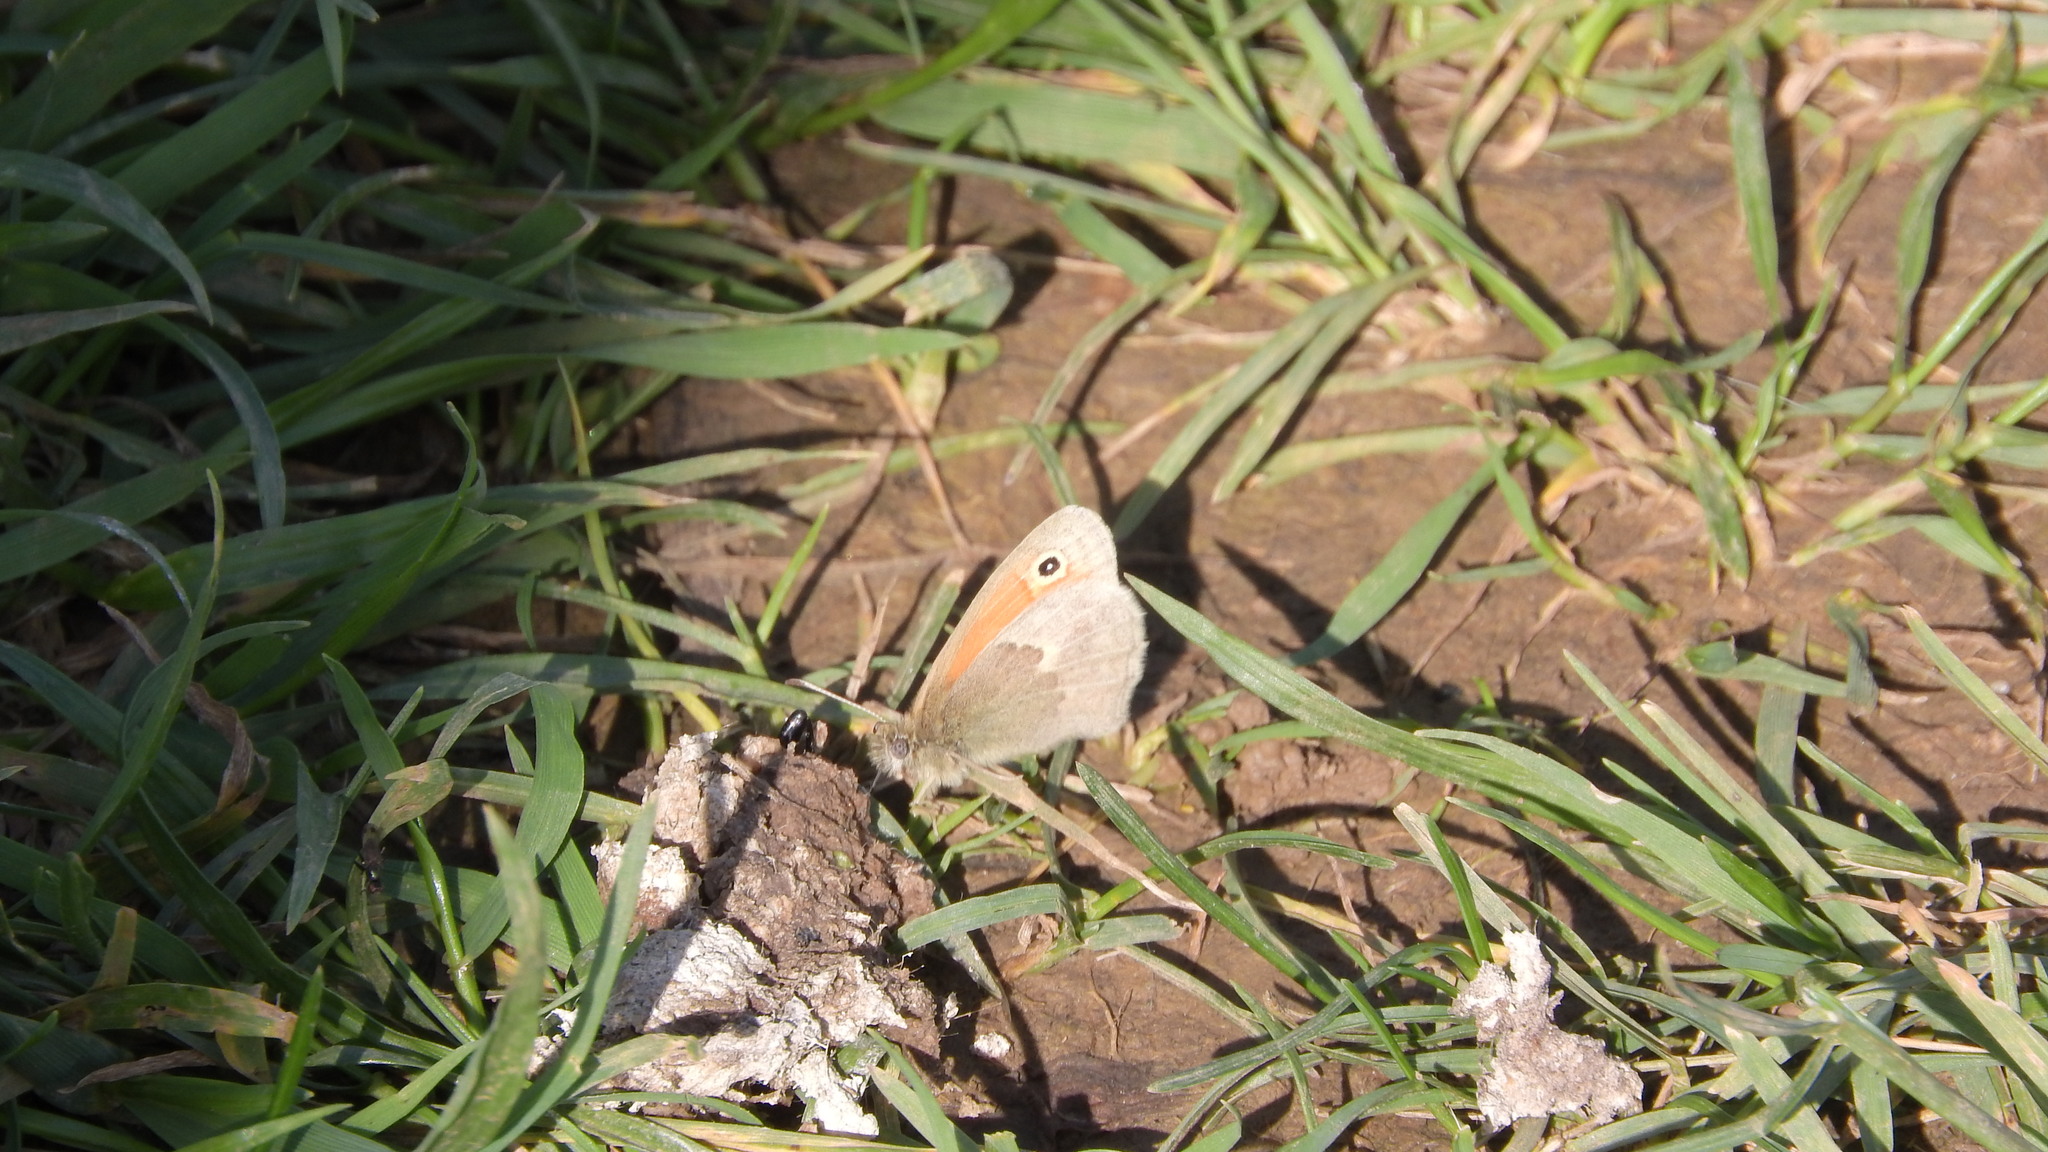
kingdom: Animalia
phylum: Arthropoda
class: Insecta
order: Lepidoptera
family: Nymphalidae
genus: Coenonympha
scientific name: Coenonympha pamphilus
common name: Small heath
